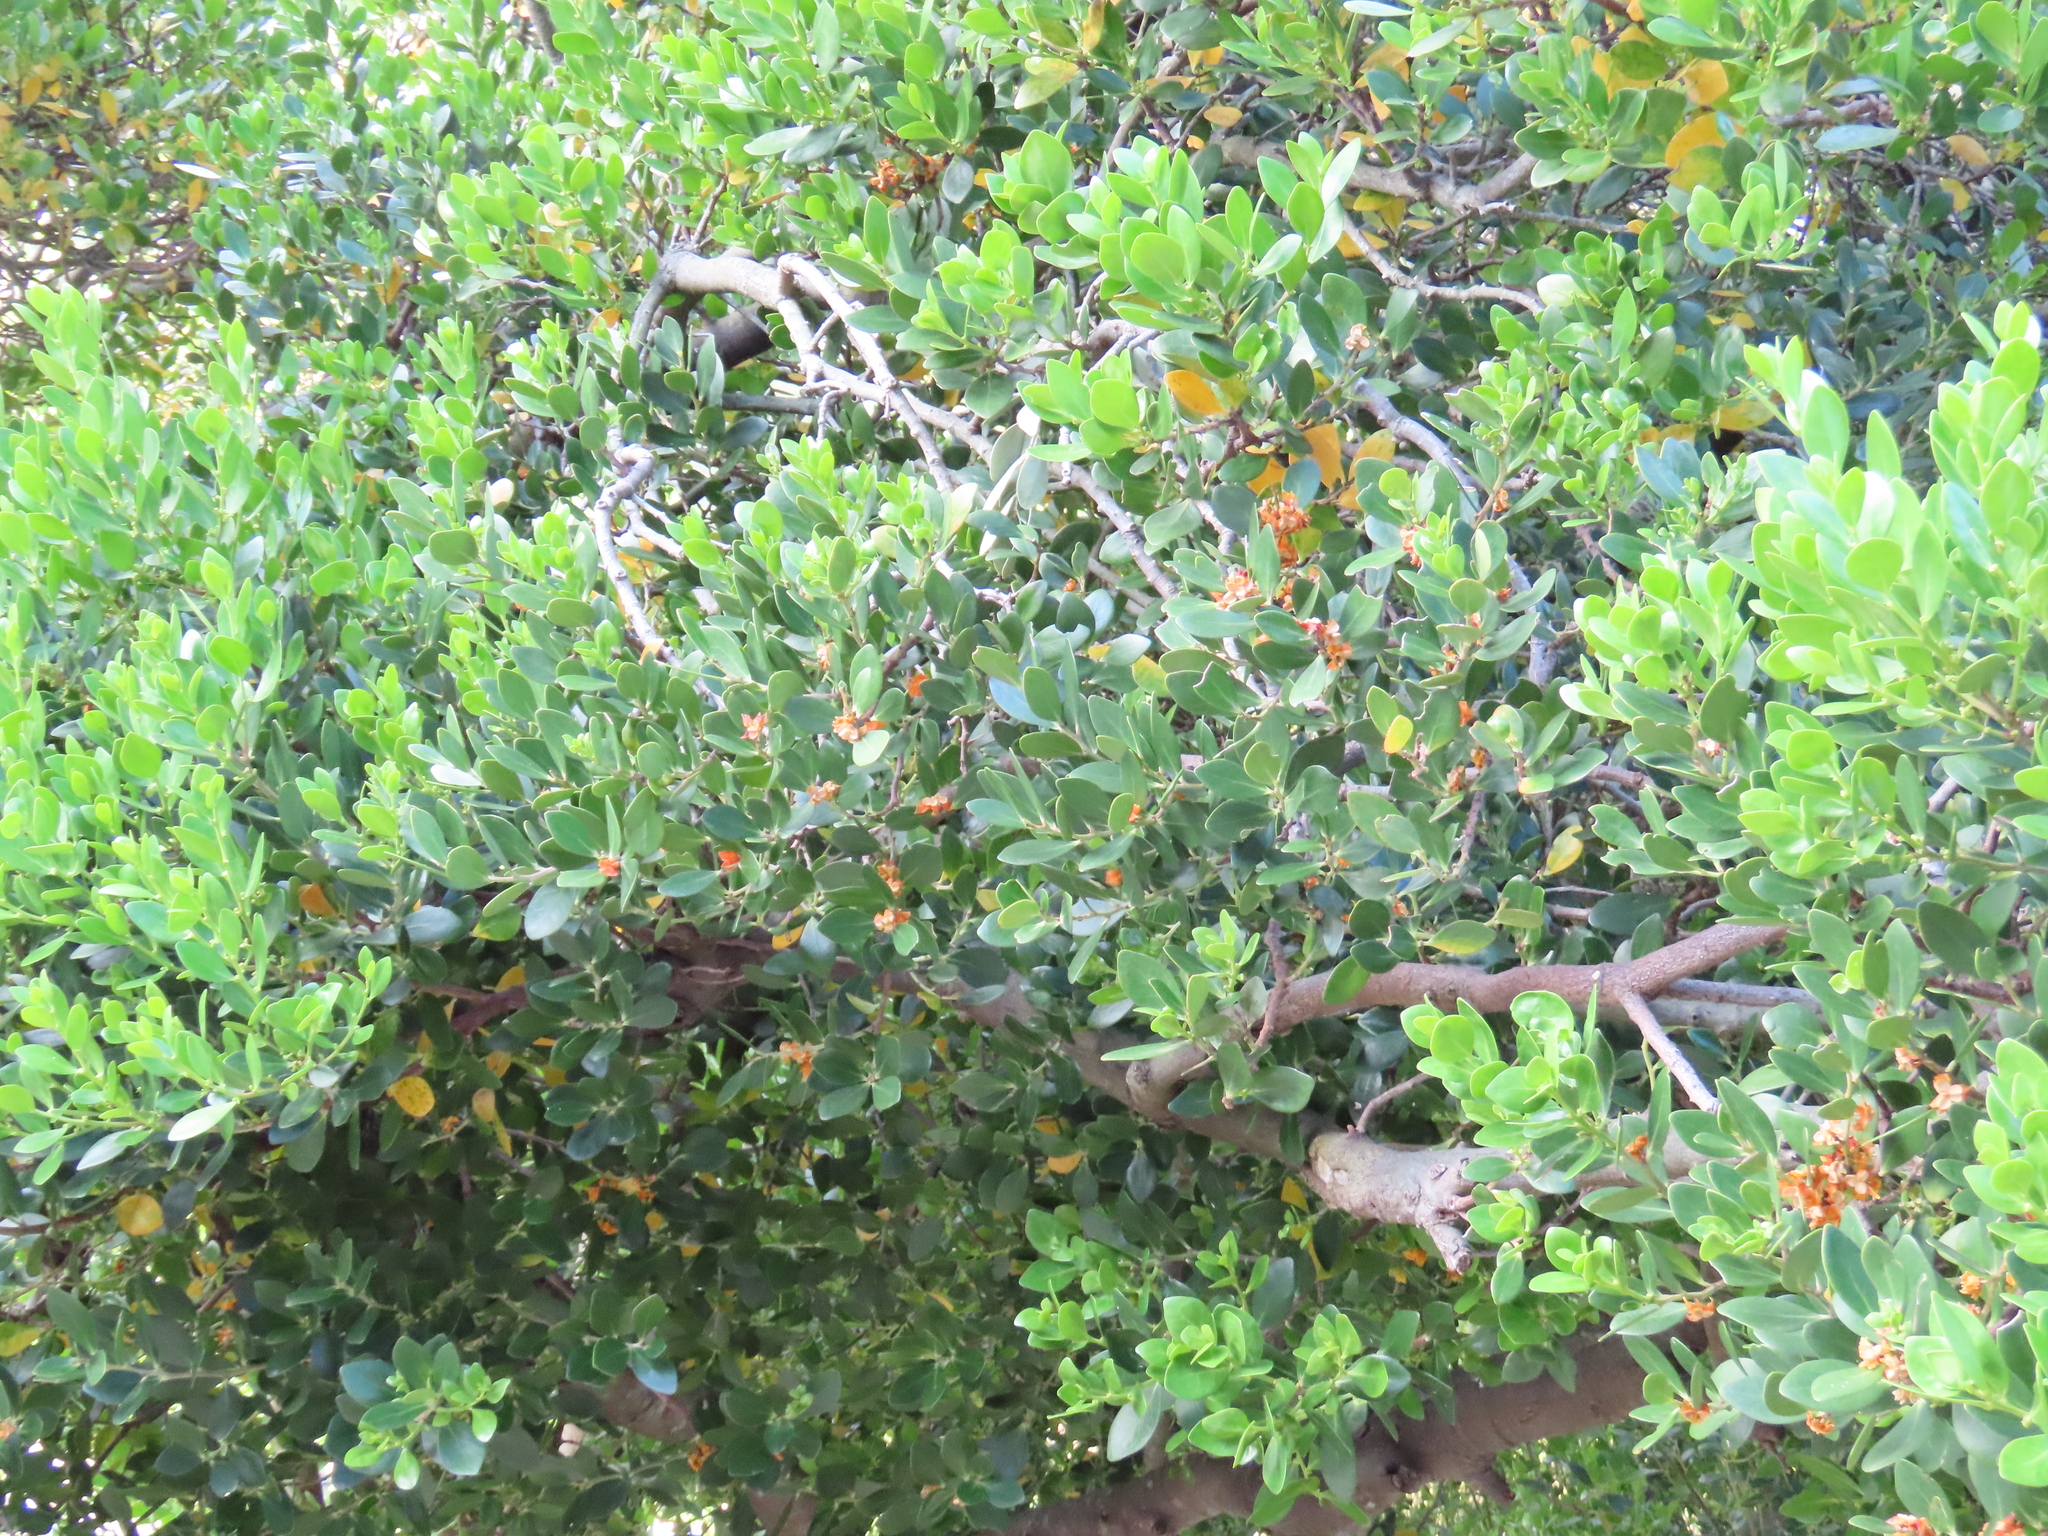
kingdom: Plantae
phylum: Tracheophyta
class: Magnoliopsida
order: Celastrales
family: Celastraceae
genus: Pterocelastrus
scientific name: Pterocelastrus tricuspidatus
